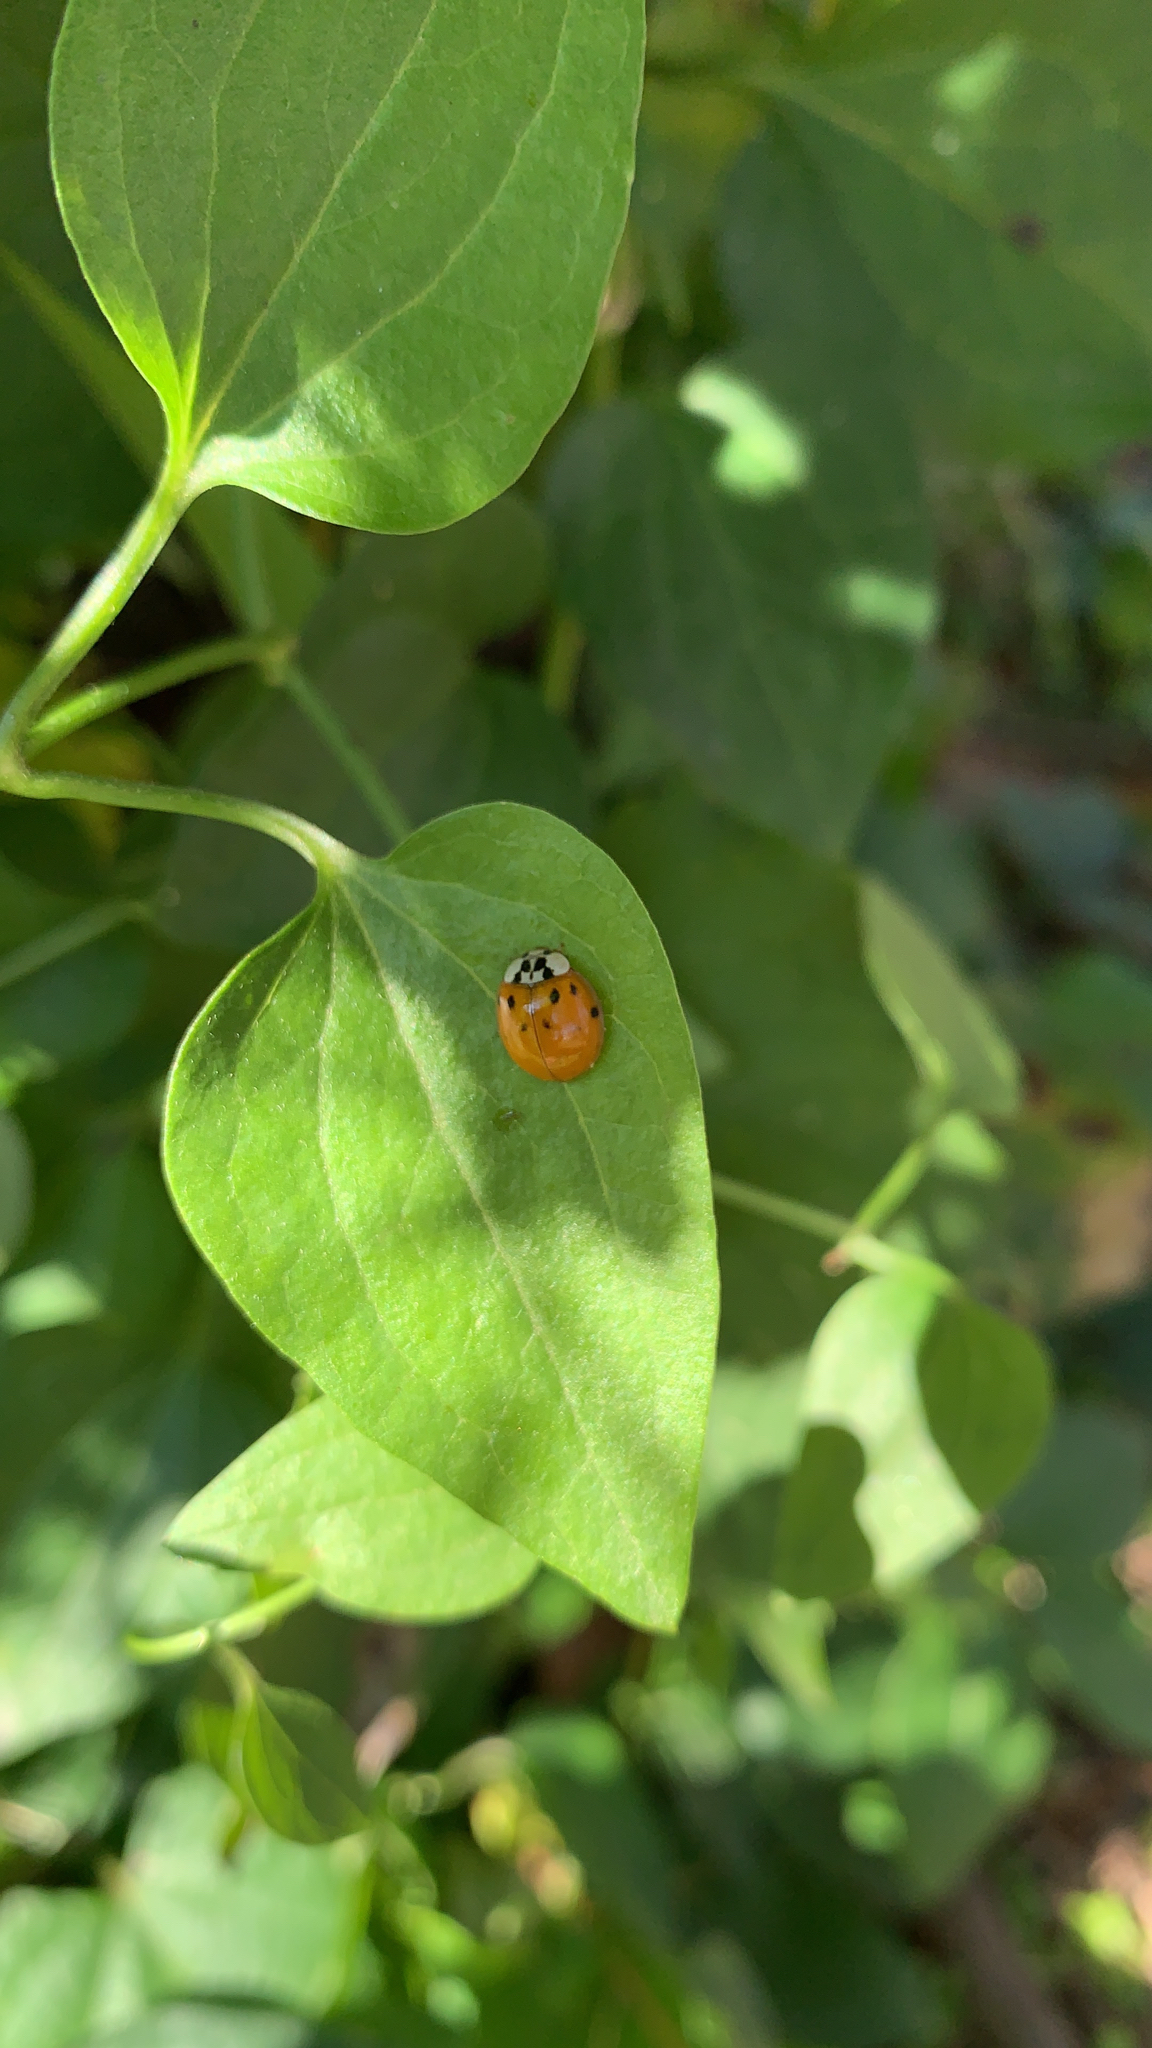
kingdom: Animalia
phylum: Arthropoda
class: Insecta
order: Coleoptera
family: Coccinellidae
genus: Harmonia
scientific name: Harmonia axyridis
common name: Harlequin ladybird
